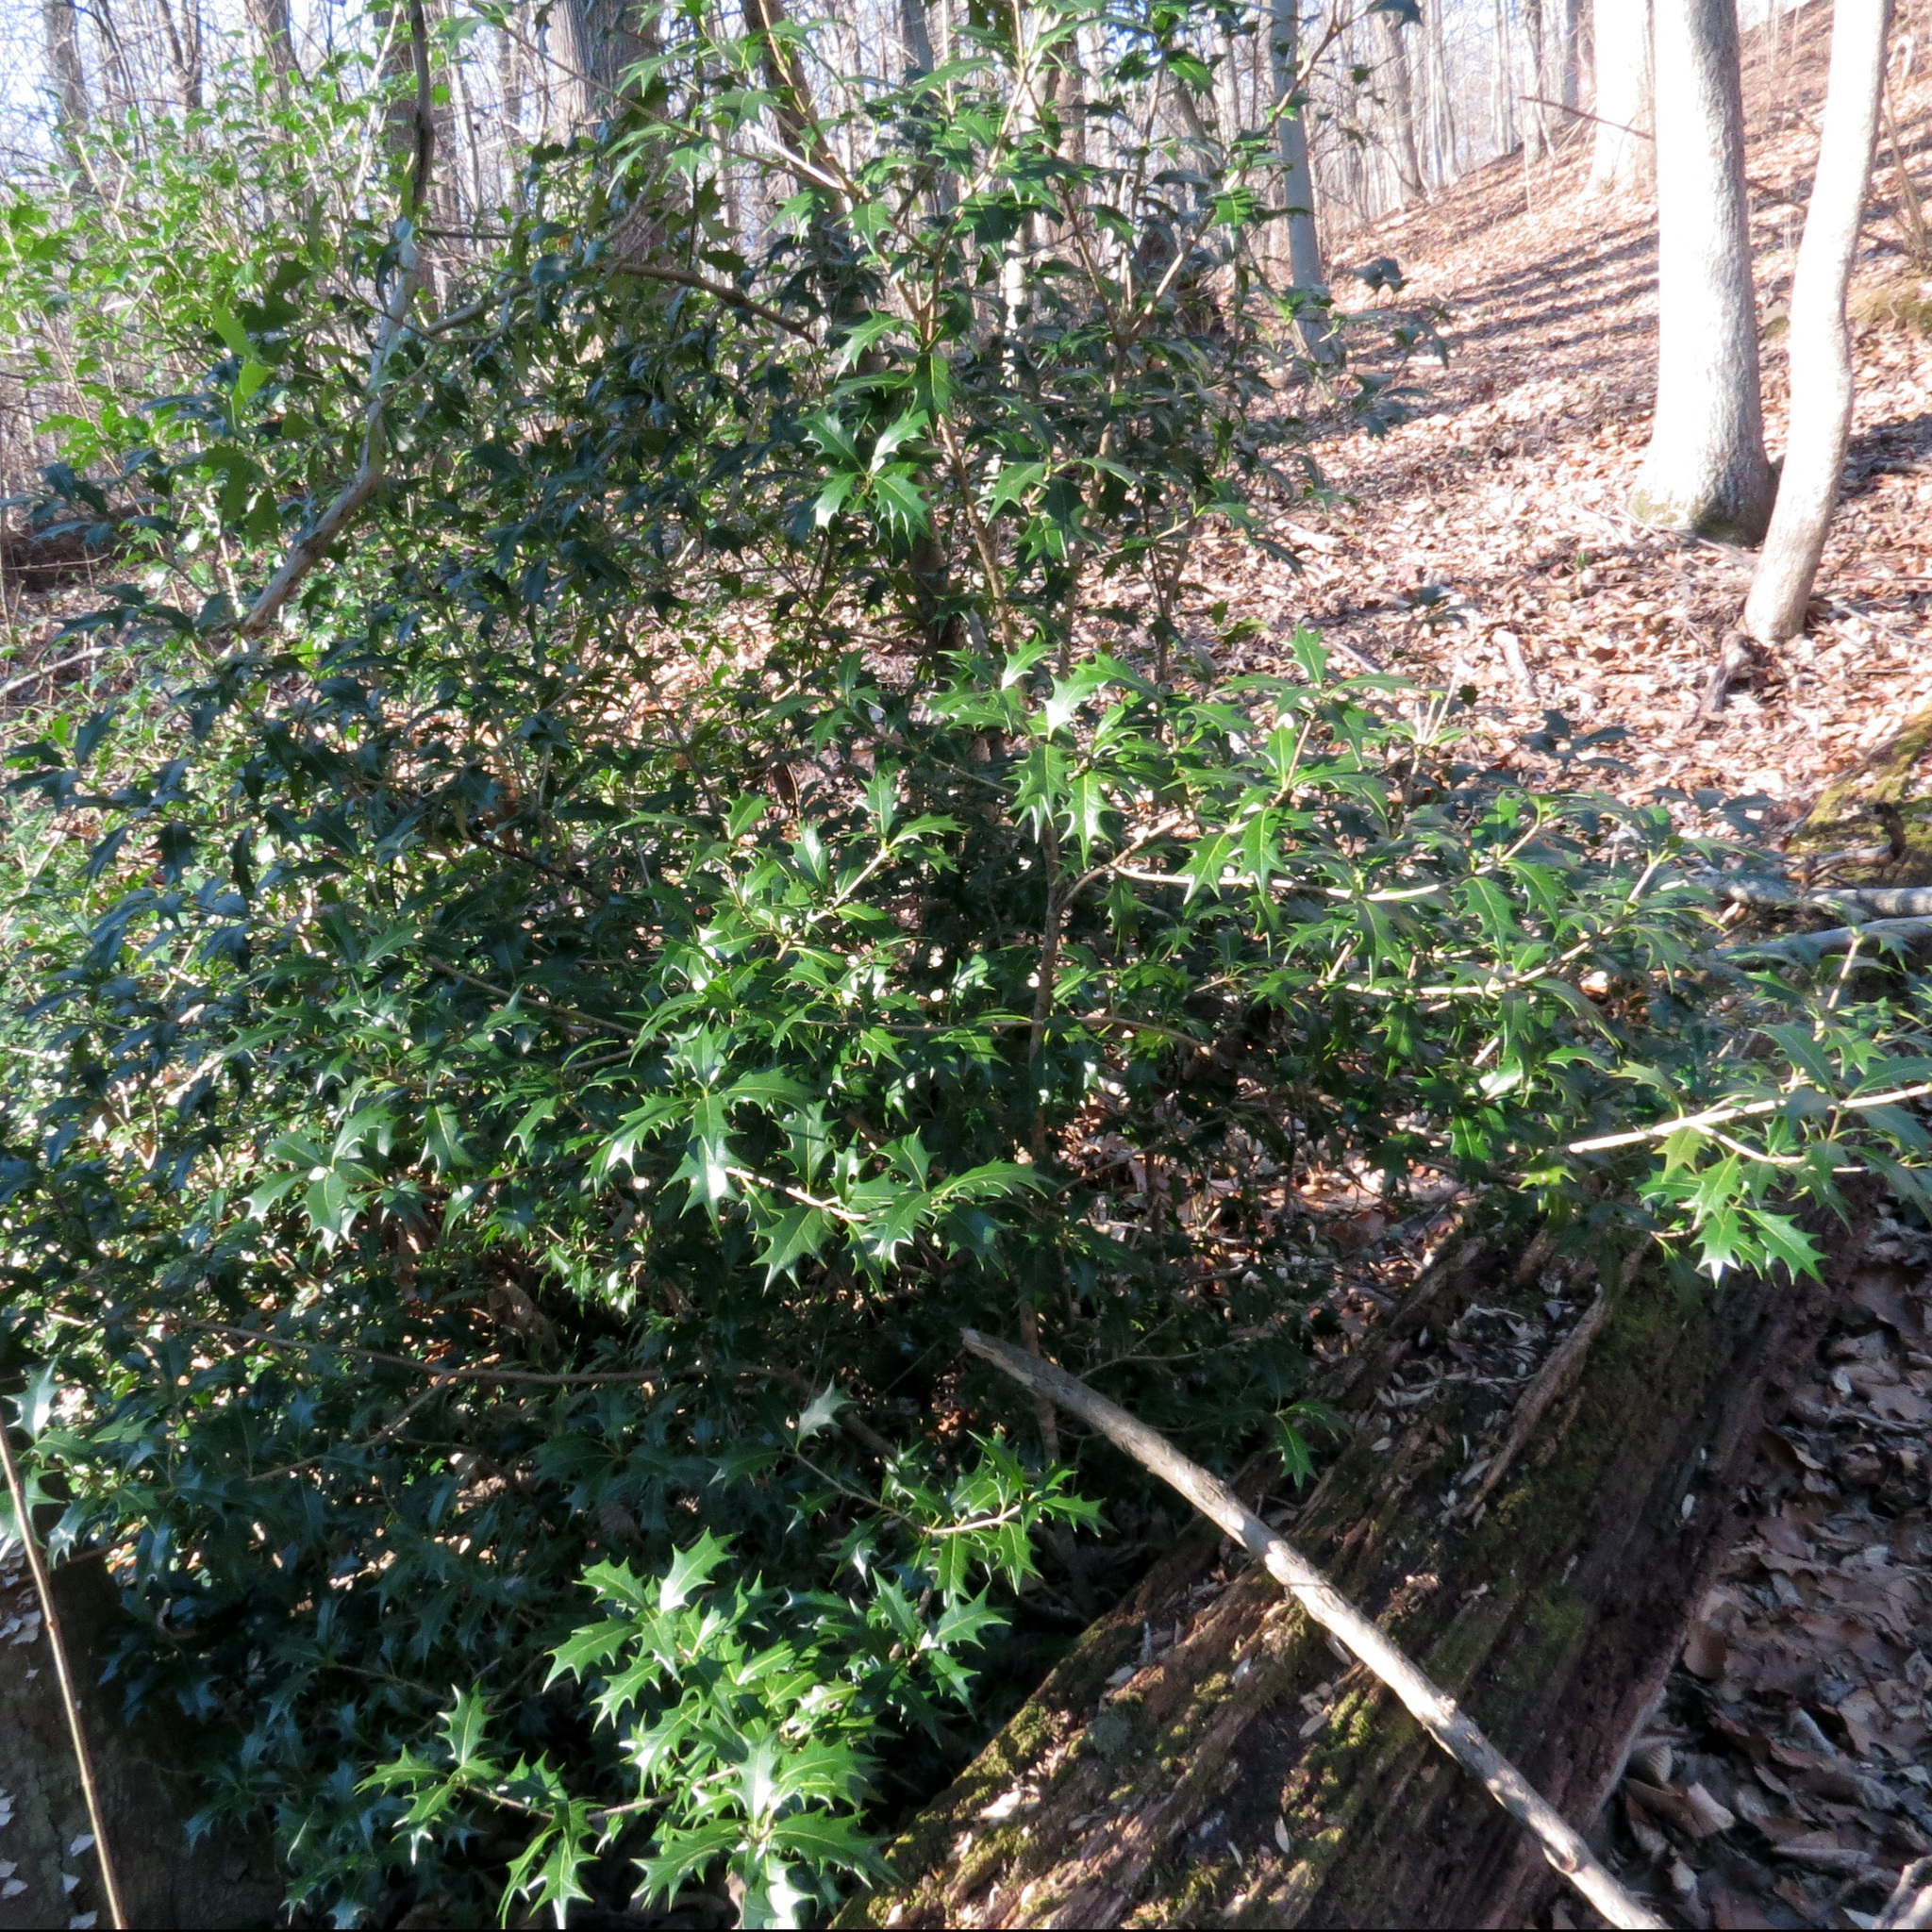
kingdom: Plantae
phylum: Tracheophyta
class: Magnoliopsida
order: Lamiales
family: Oleaceae
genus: Osmanthus
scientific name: Osmanthus heterophyllus
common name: Holly osmanthus
